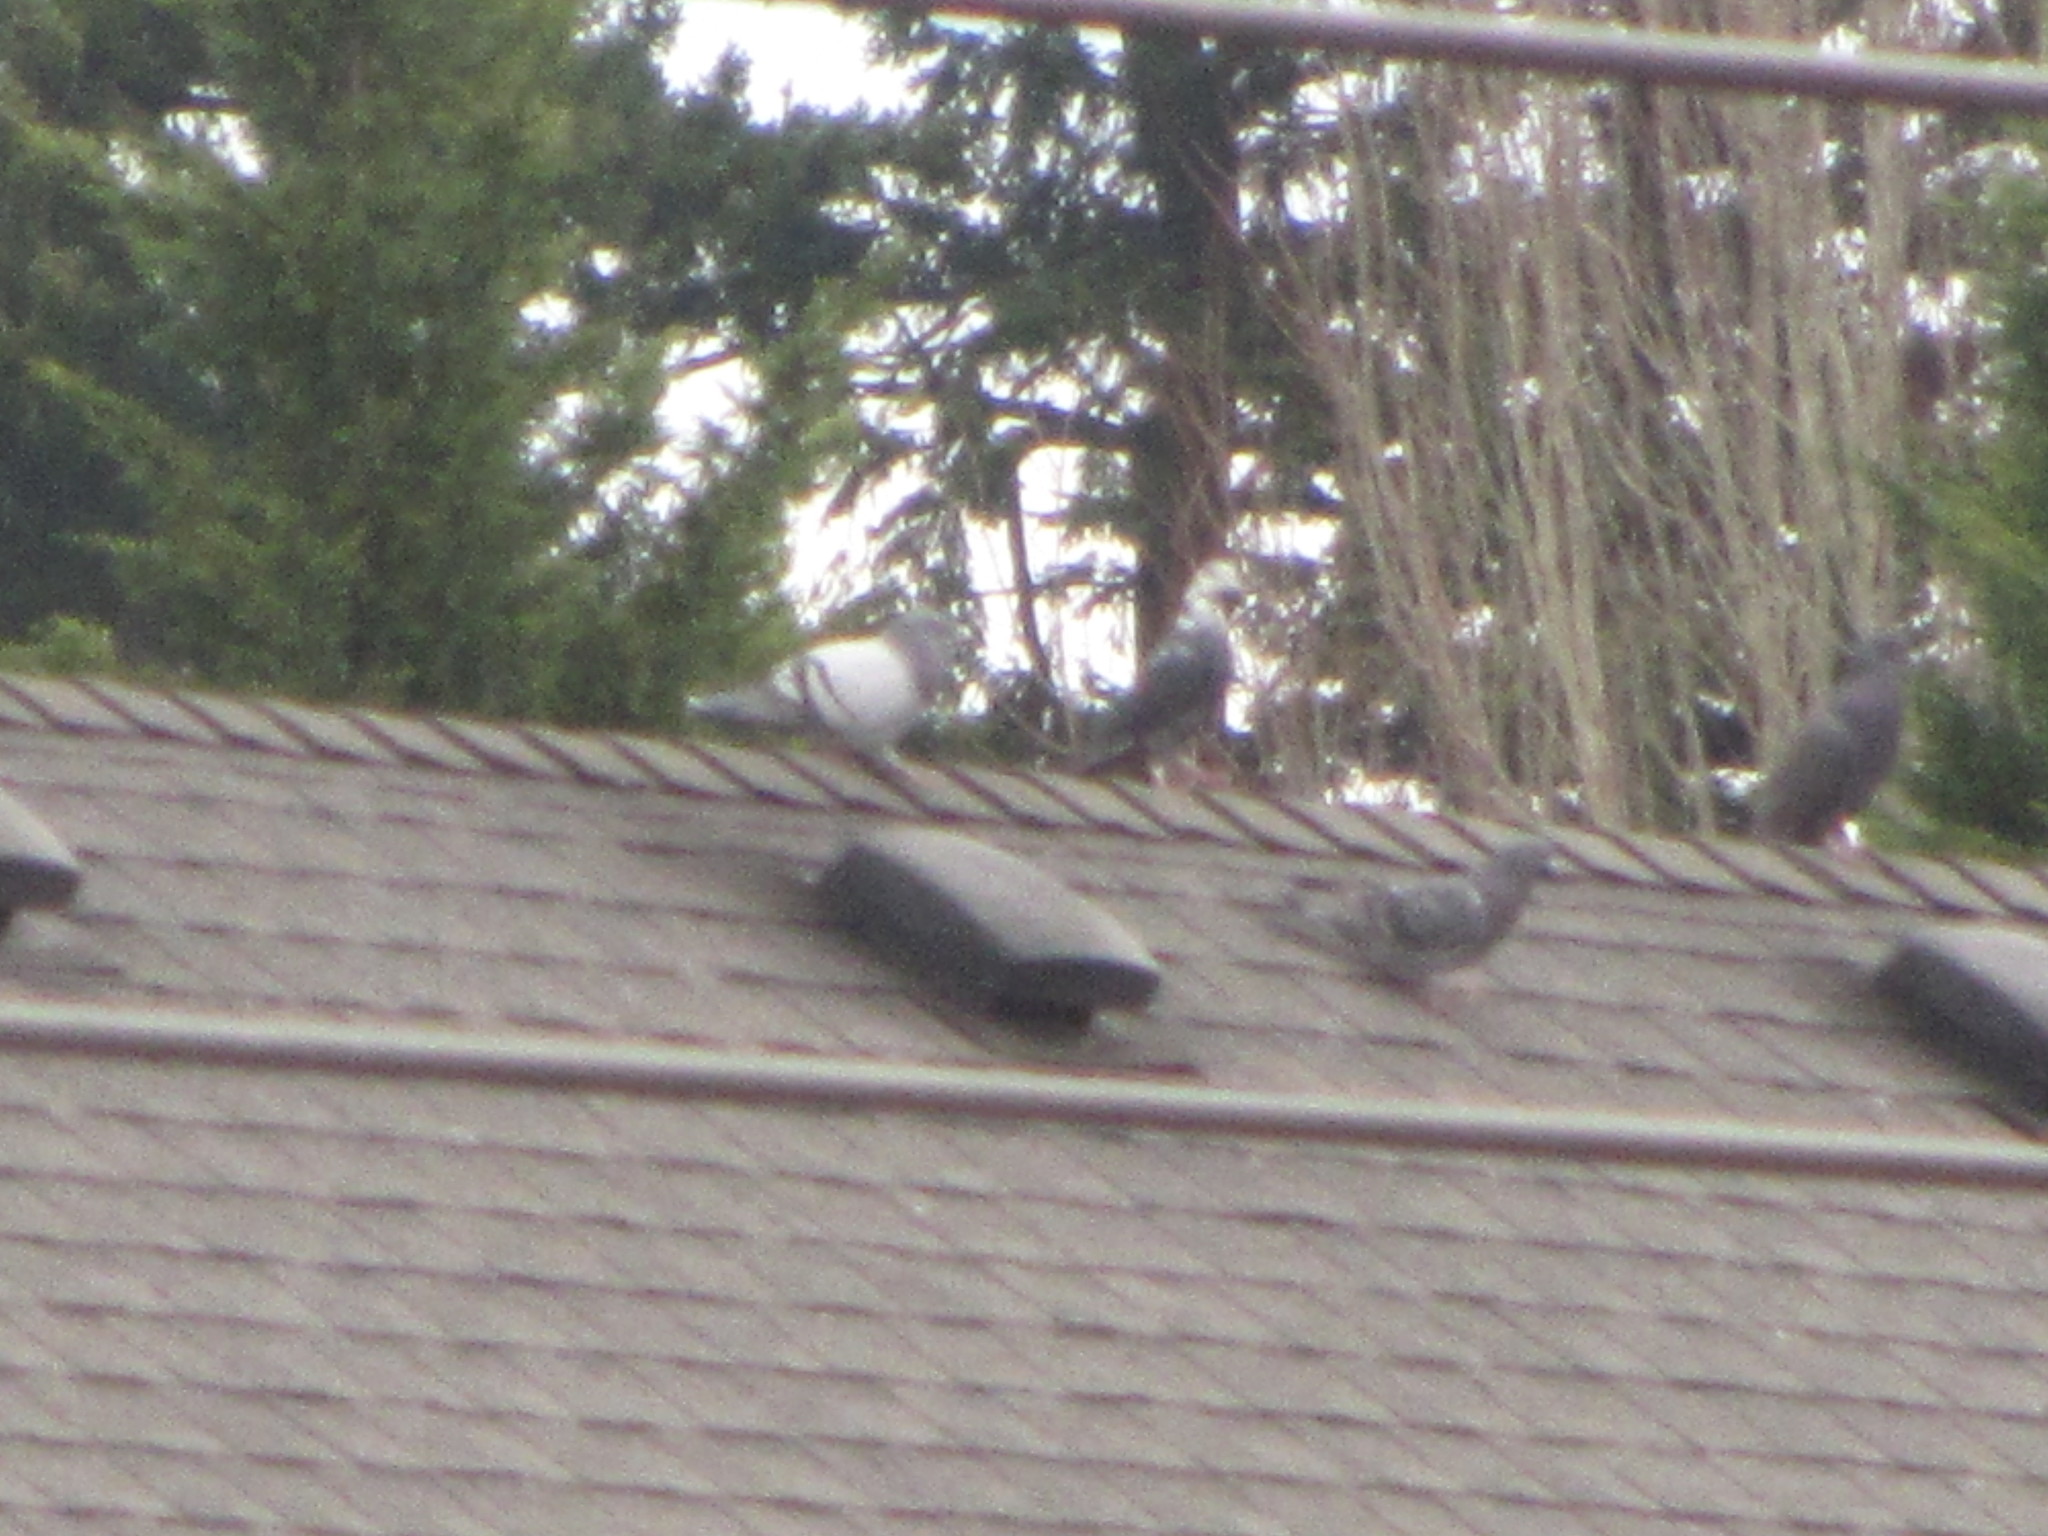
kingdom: Animalia
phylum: Chordata
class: Aves
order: Columbiformes
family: Columbidae
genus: Columba
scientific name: Columba livia
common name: Rock pigeon
